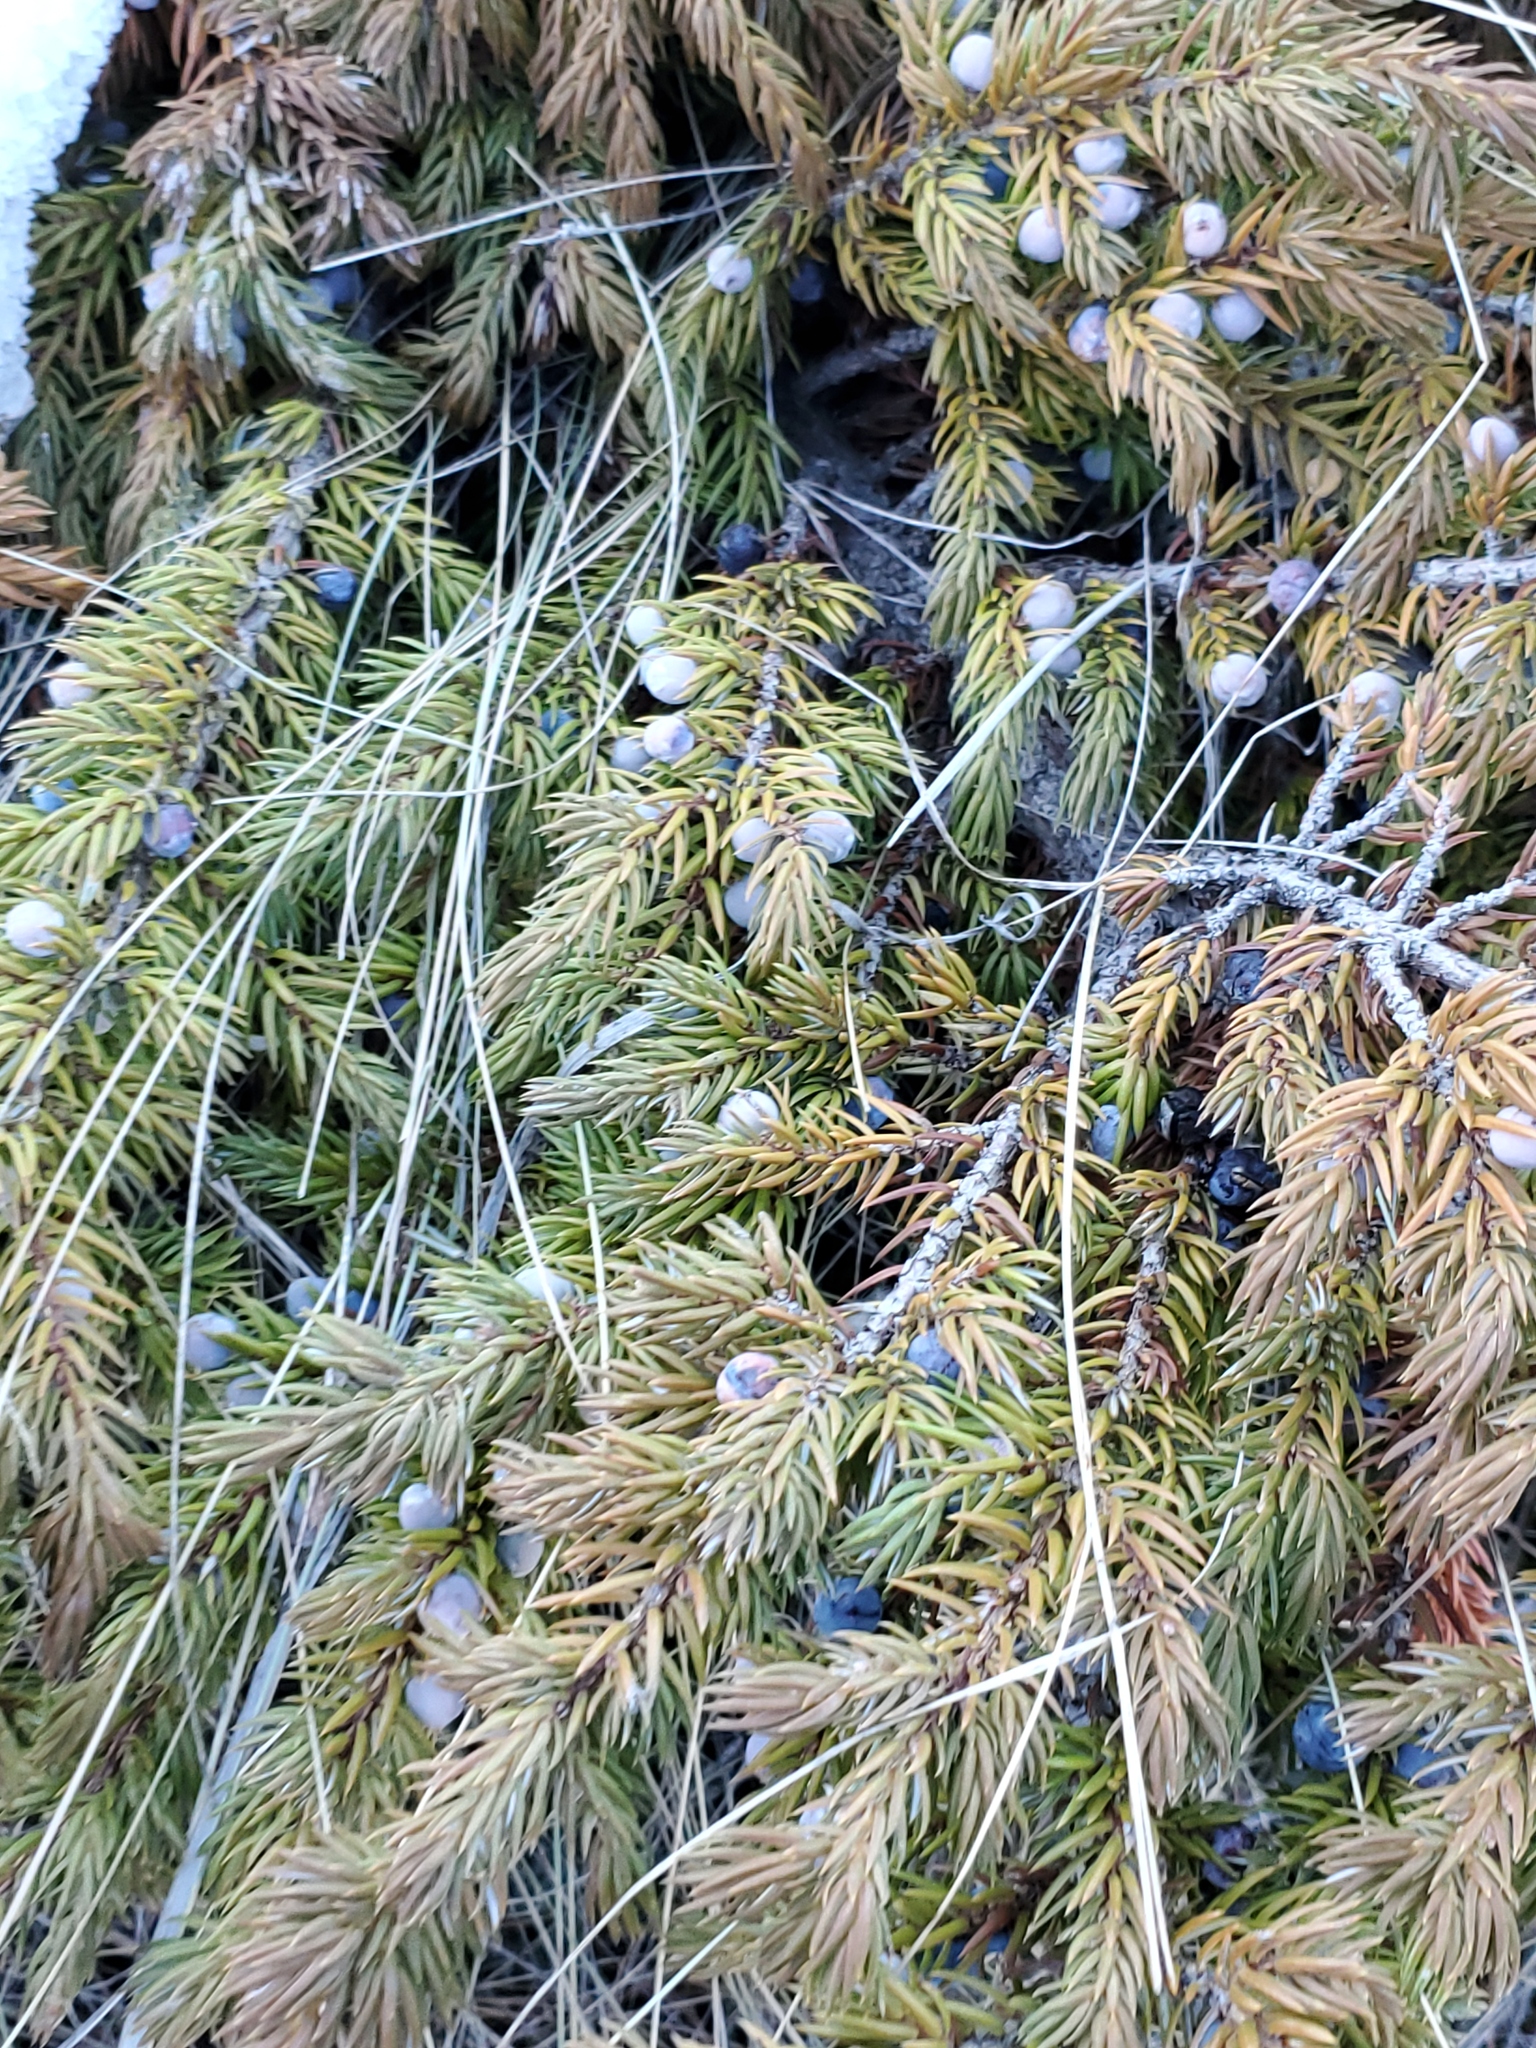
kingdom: Plantae
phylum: Tracheophyta
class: Pinopsida
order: Pinales
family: Cupressaceae
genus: Juniperus
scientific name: Juniperus communis
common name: Common juniper
